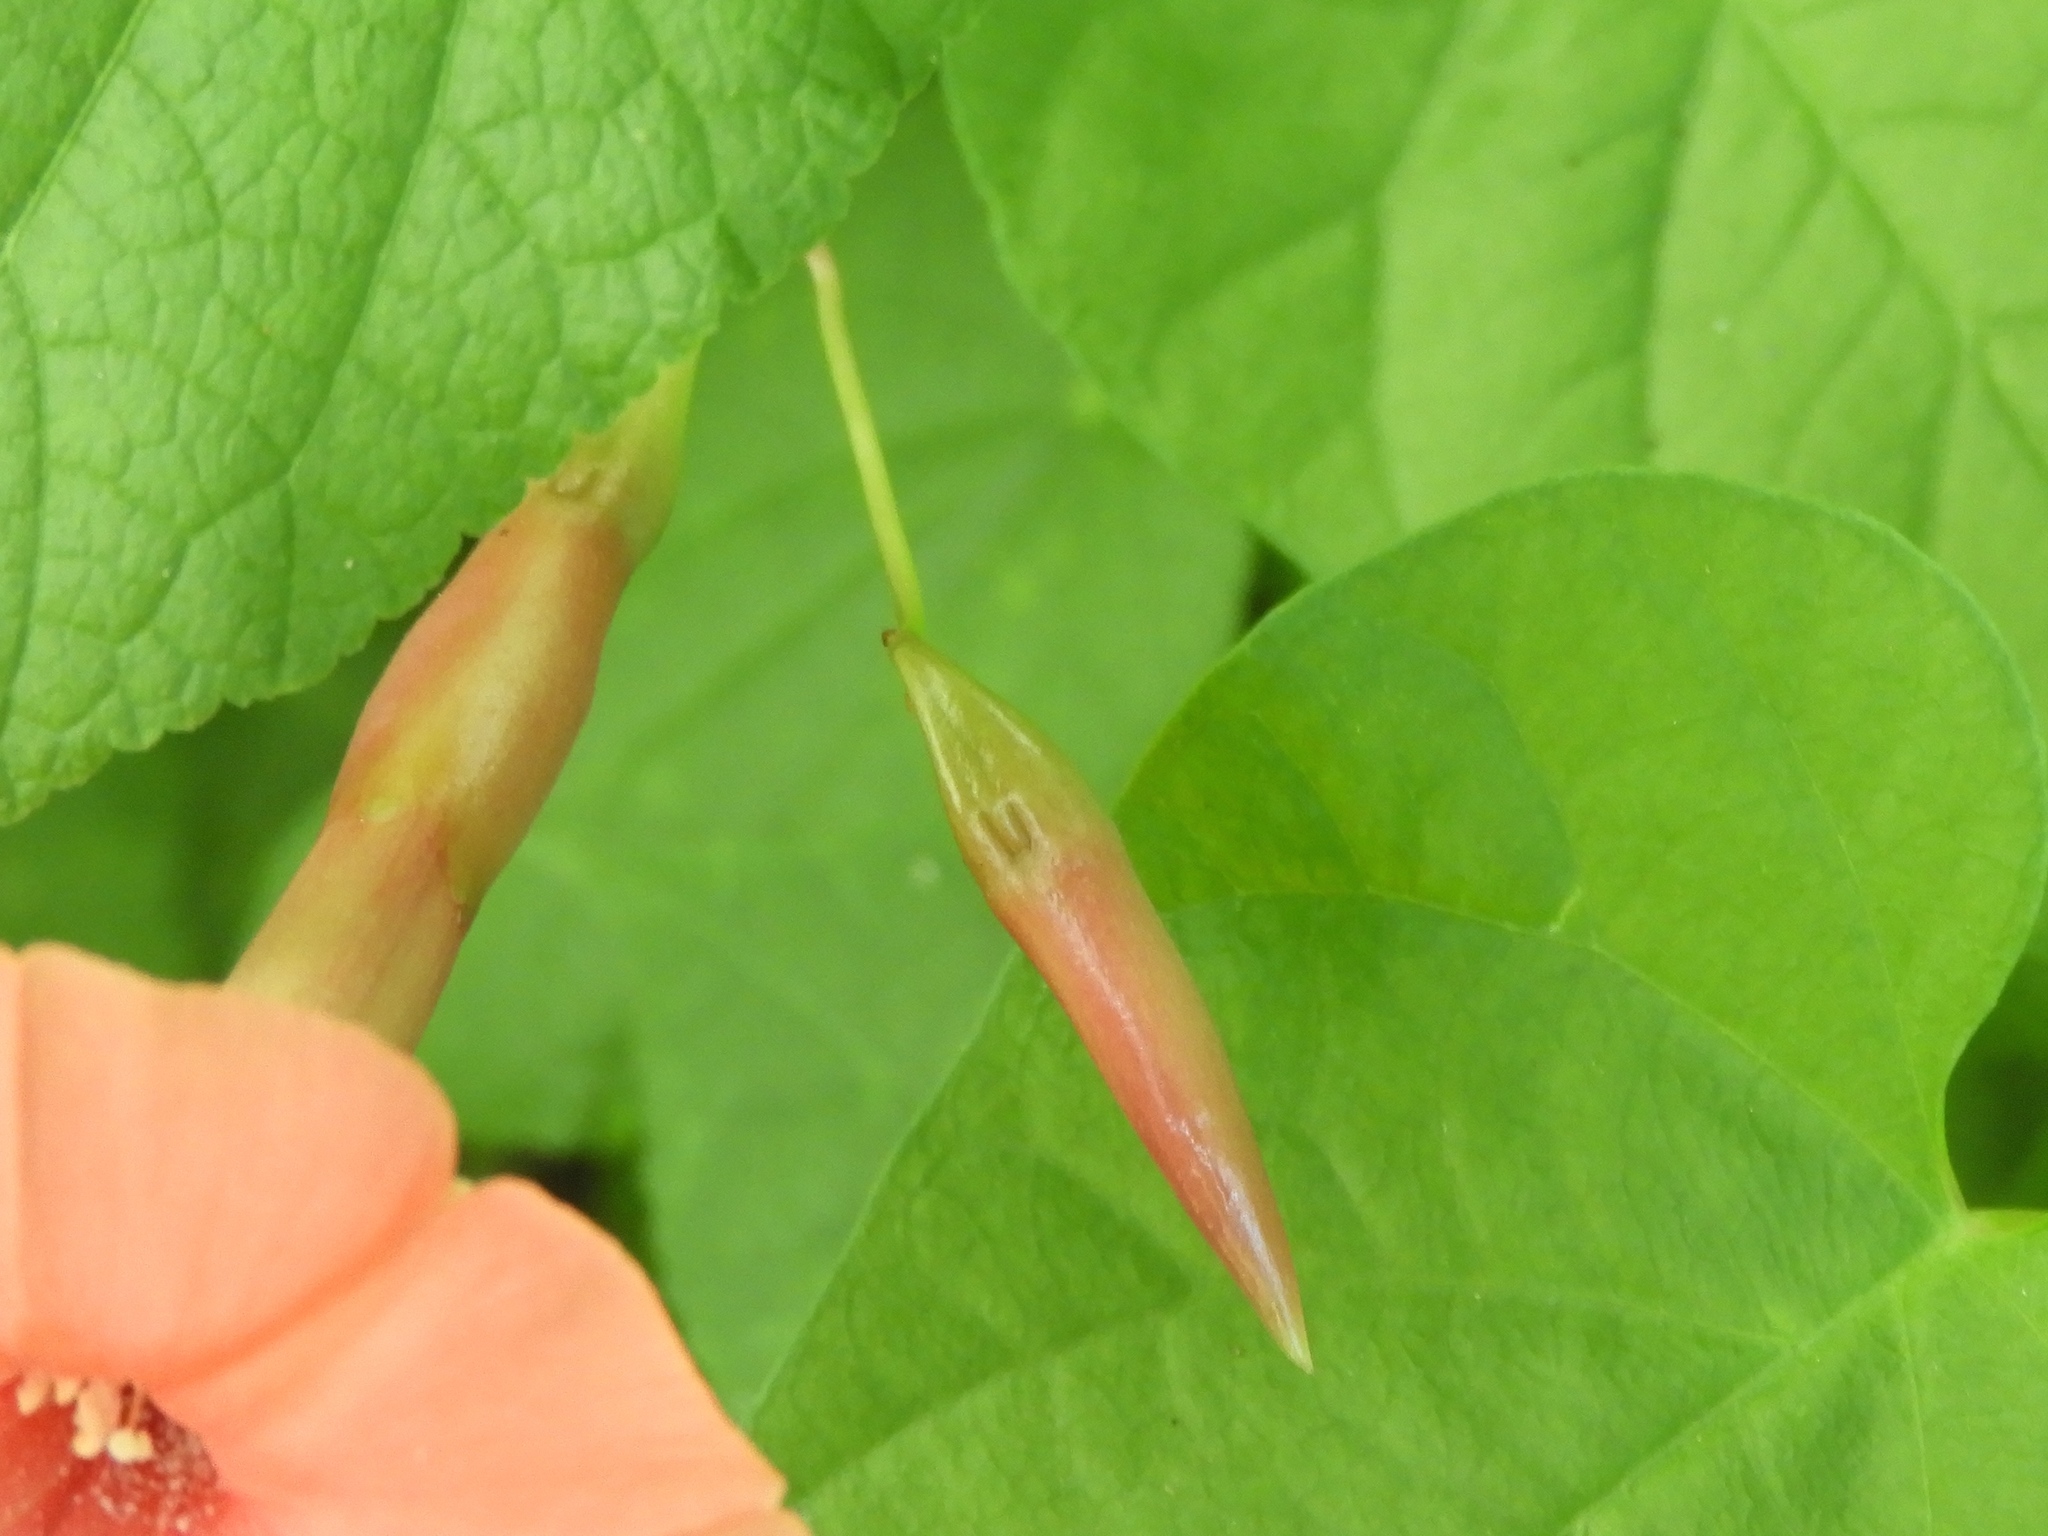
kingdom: Plantae
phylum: Tracheophyta
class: Magnoliopsida
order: Solanales
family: Convolvulaceae
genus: Operculina
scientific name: Operculina pteripes
